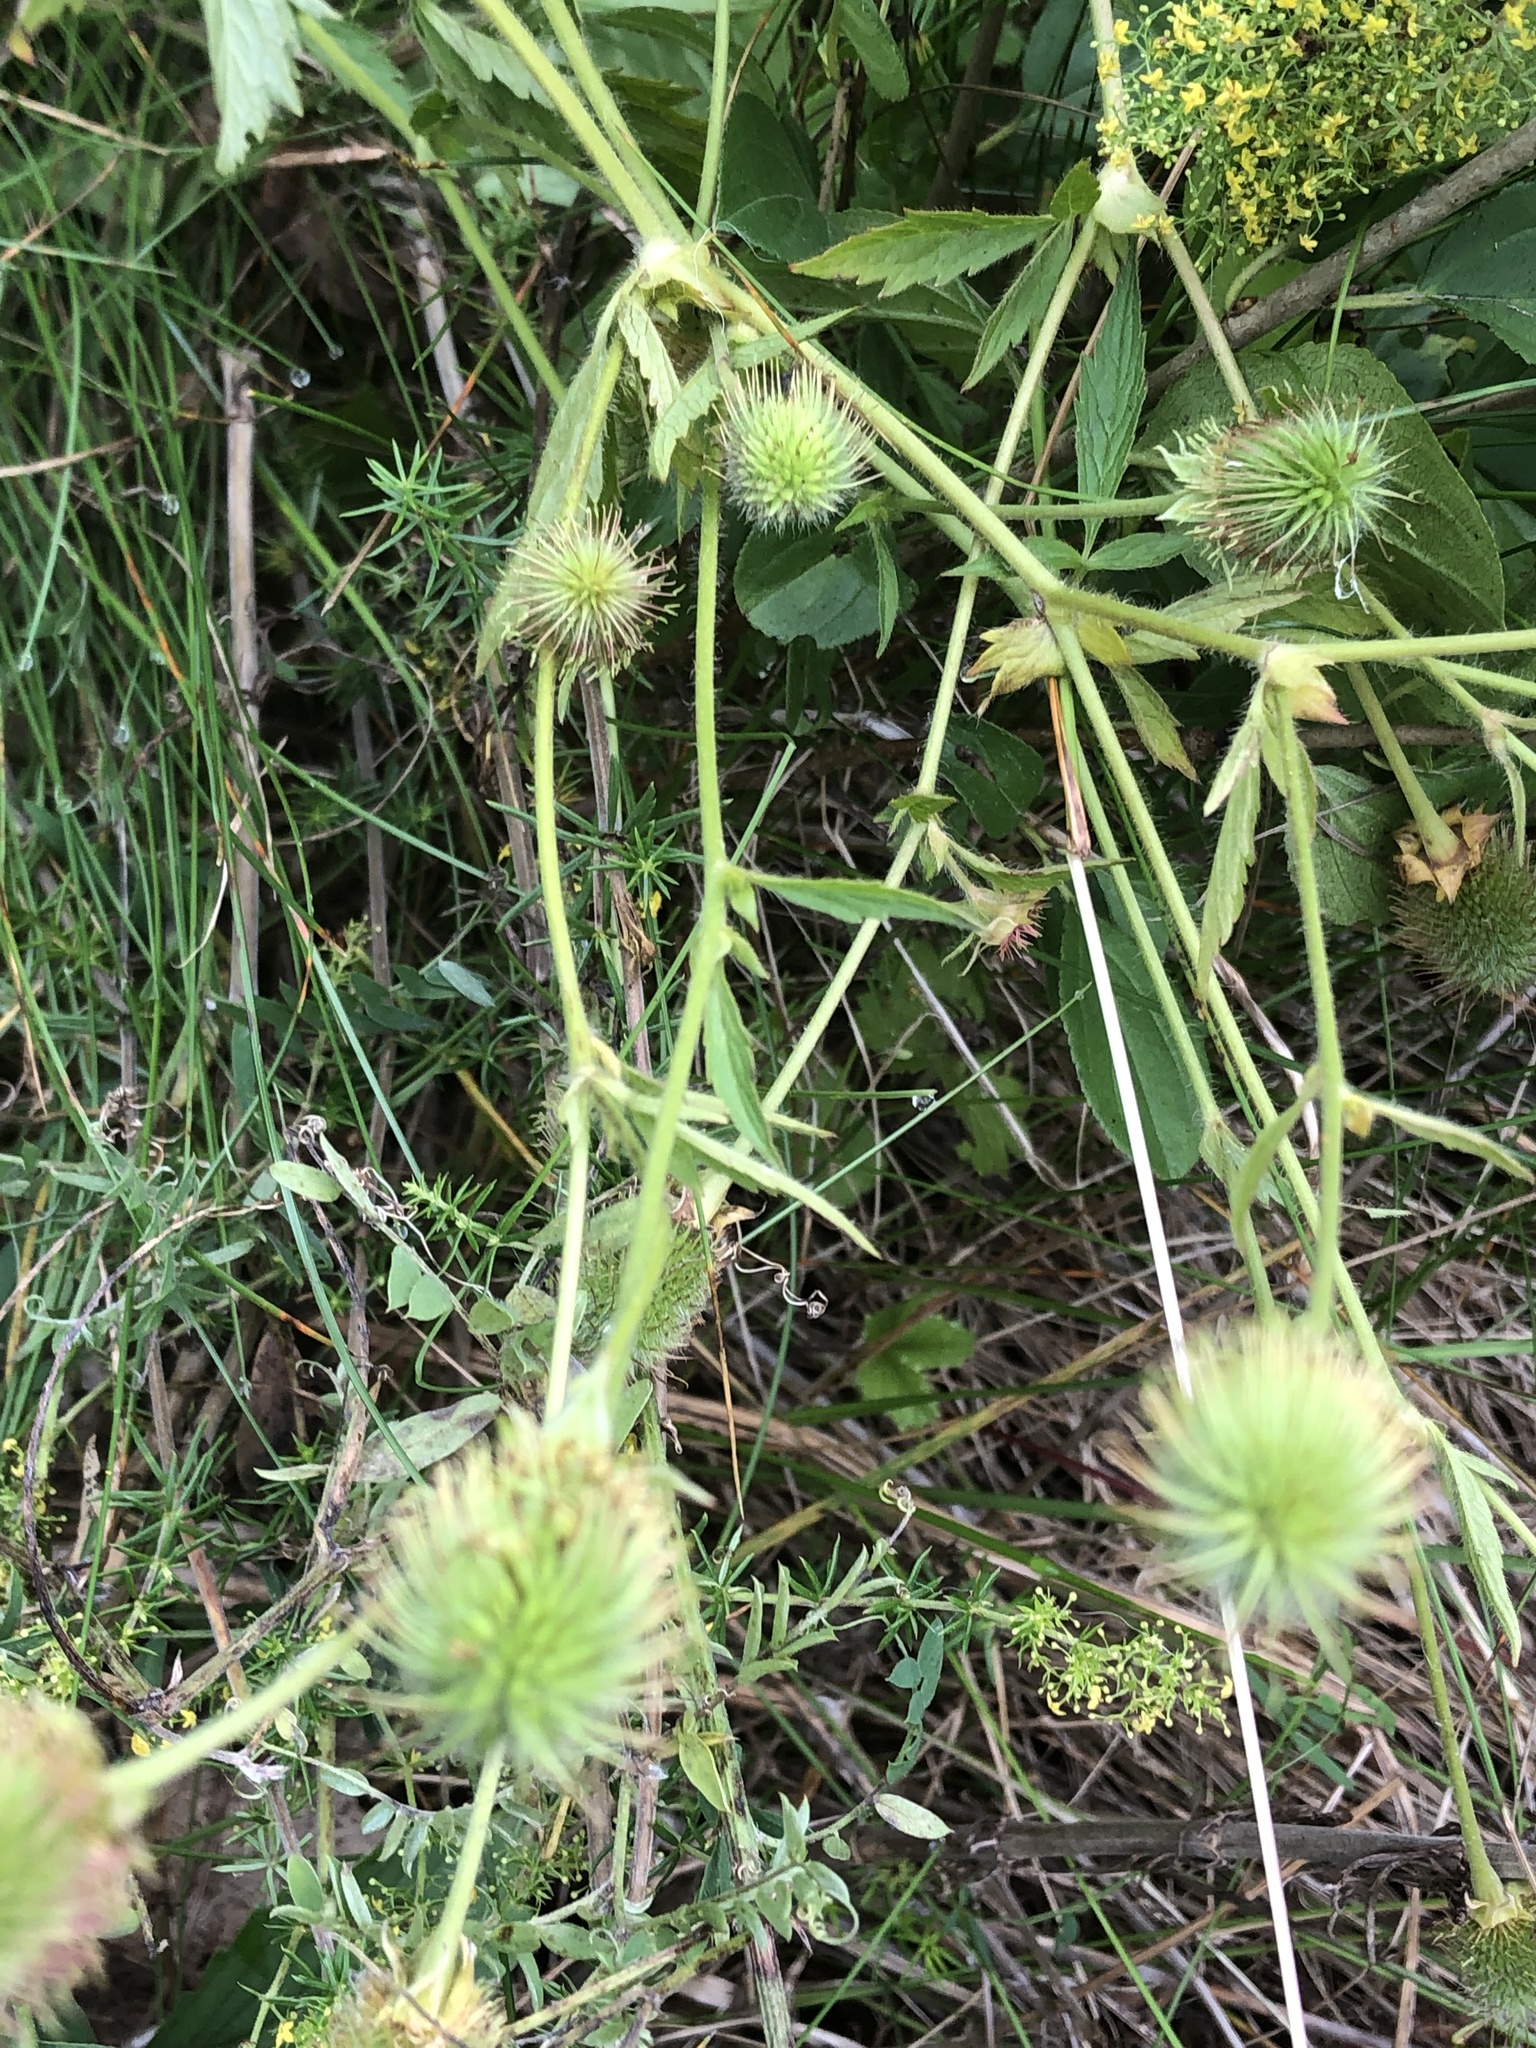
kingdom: Plantae
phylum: Tracheophyta
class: Magnoliopsida
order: Rosales
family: Rosaceae
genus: Geum
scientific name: Geum aleppicum
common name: Yellow avens
